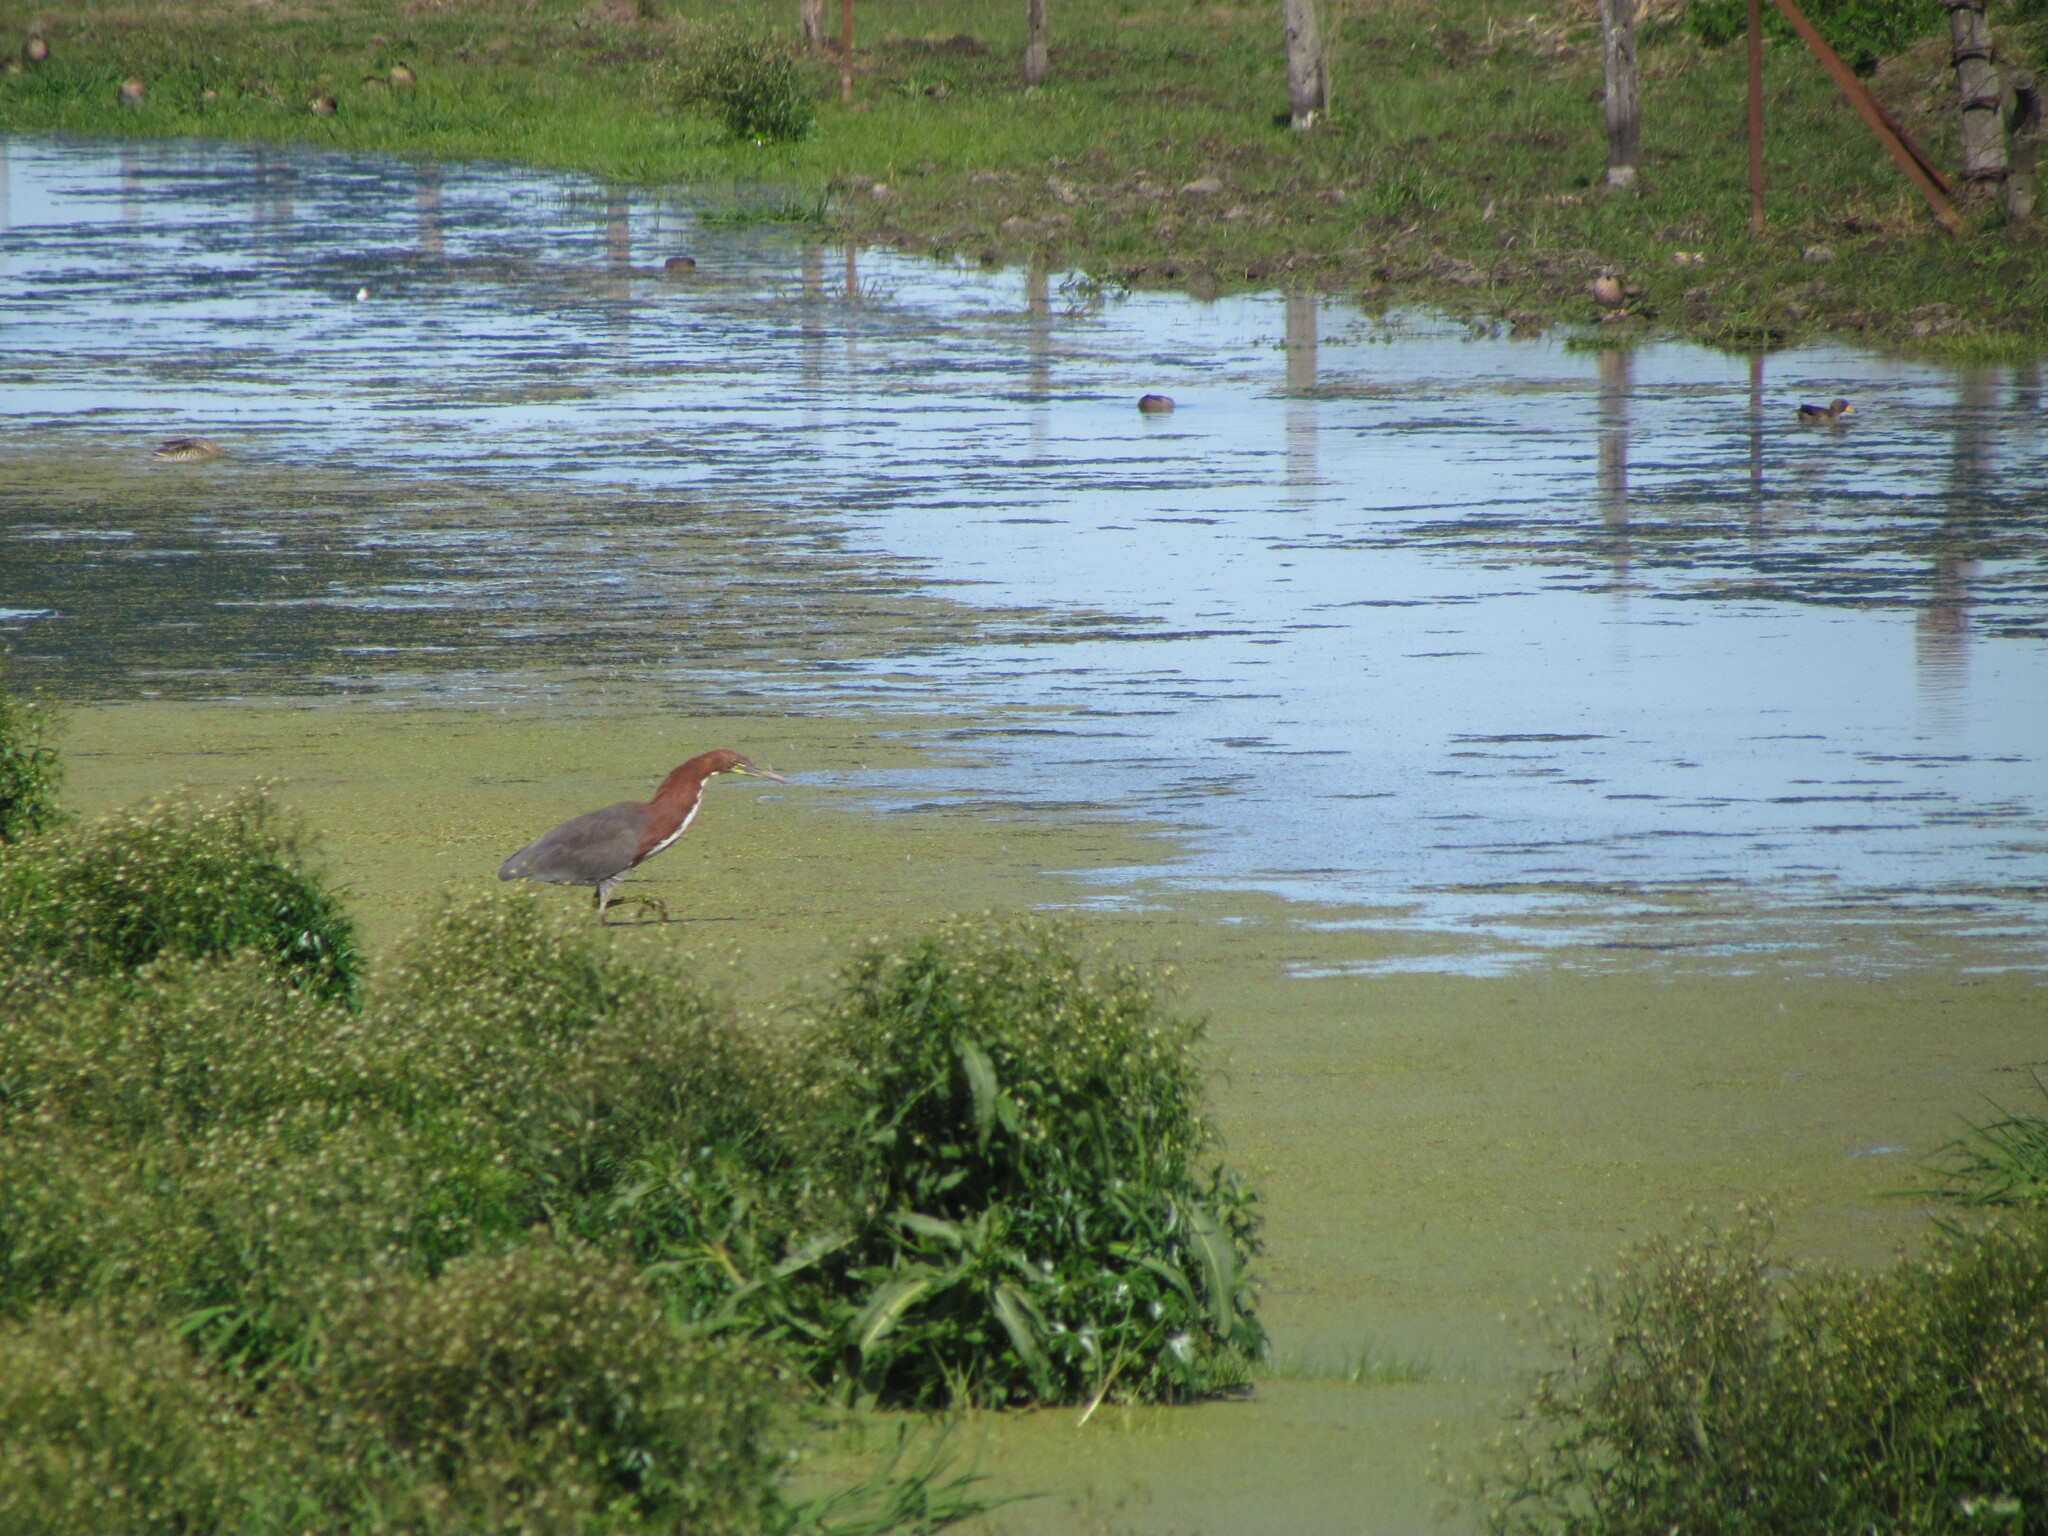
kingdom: Animalia
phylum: Chordata
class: Aves
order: Pelecaniformes
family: Ardeidae
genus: Tigrisoma
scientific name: Tigrisoma lineatum
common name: Rufescent tiger-heron
